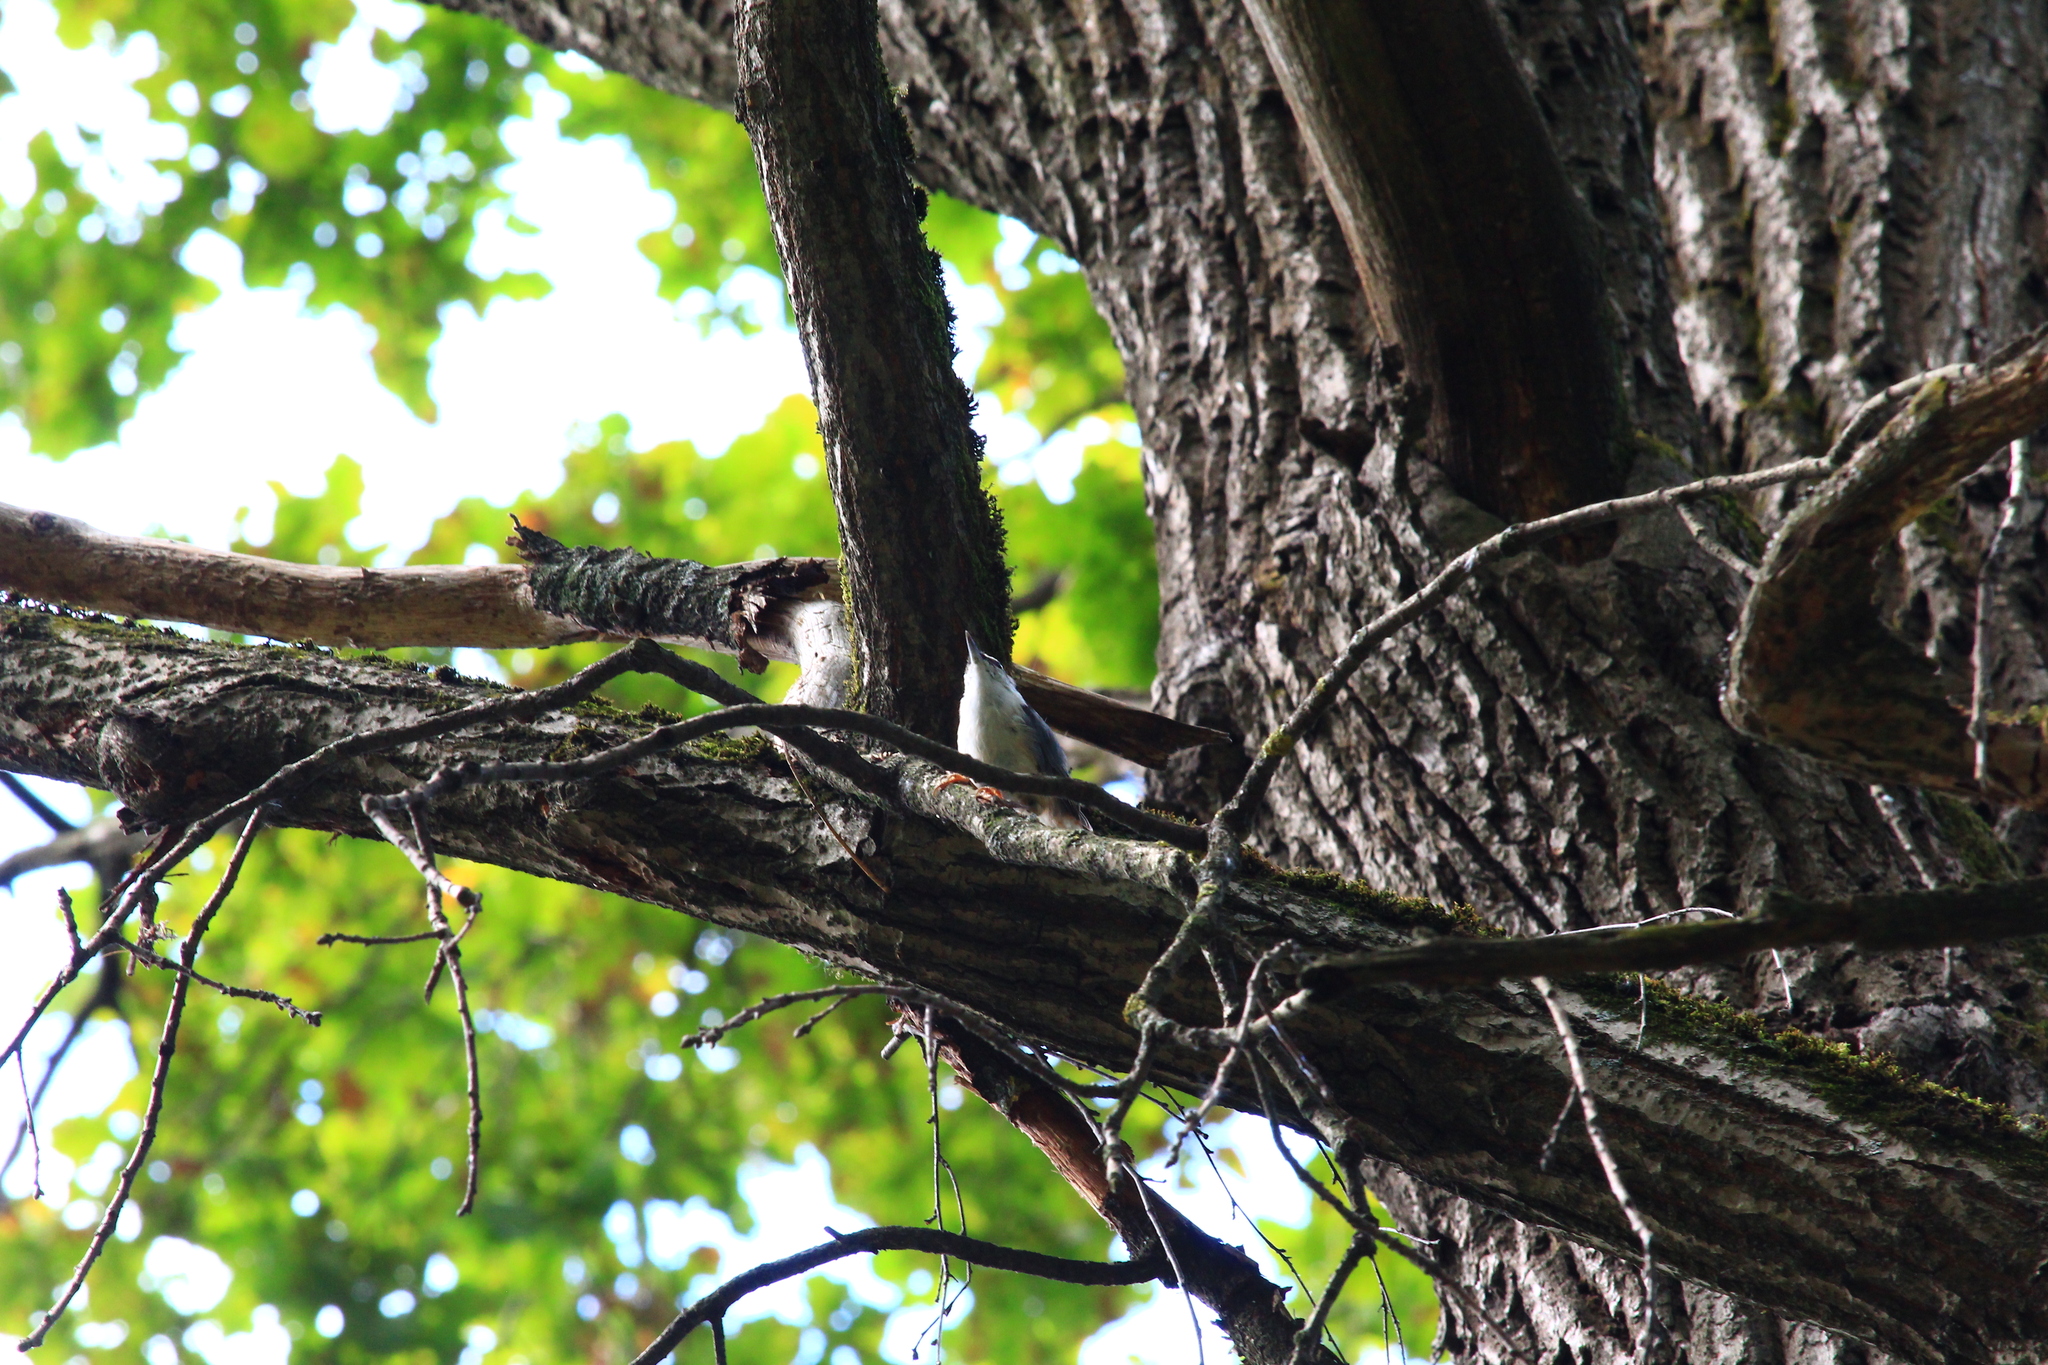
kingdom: Animalia
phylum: Chordata
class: Aves
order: Passeriformes
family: Sittidae
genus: Sitta
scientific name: Sitta europaea
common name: Eurasian nuthatch
